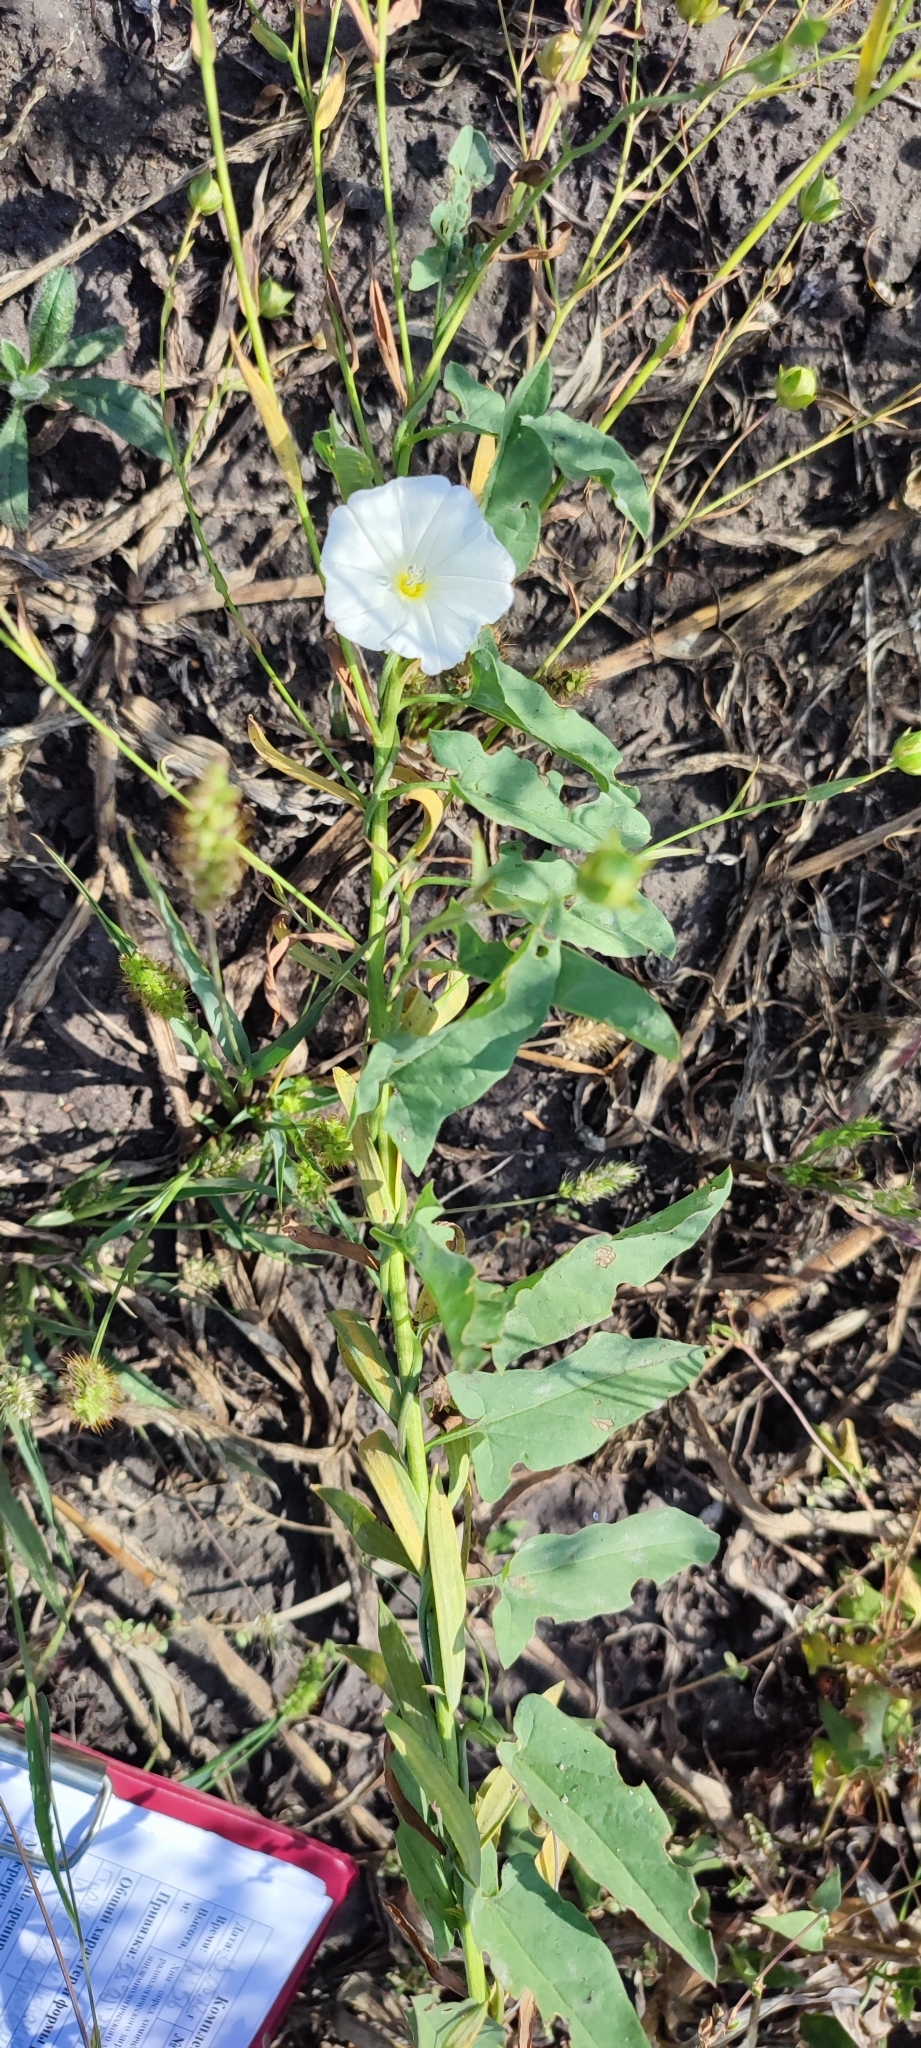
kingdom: Plantae
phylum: Tracheophyta
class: Magnoliopsida
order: Solanales
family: Convolvulaceae
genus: Convolvulus
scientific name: Convolvulus arvensis
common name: Field bindweed
